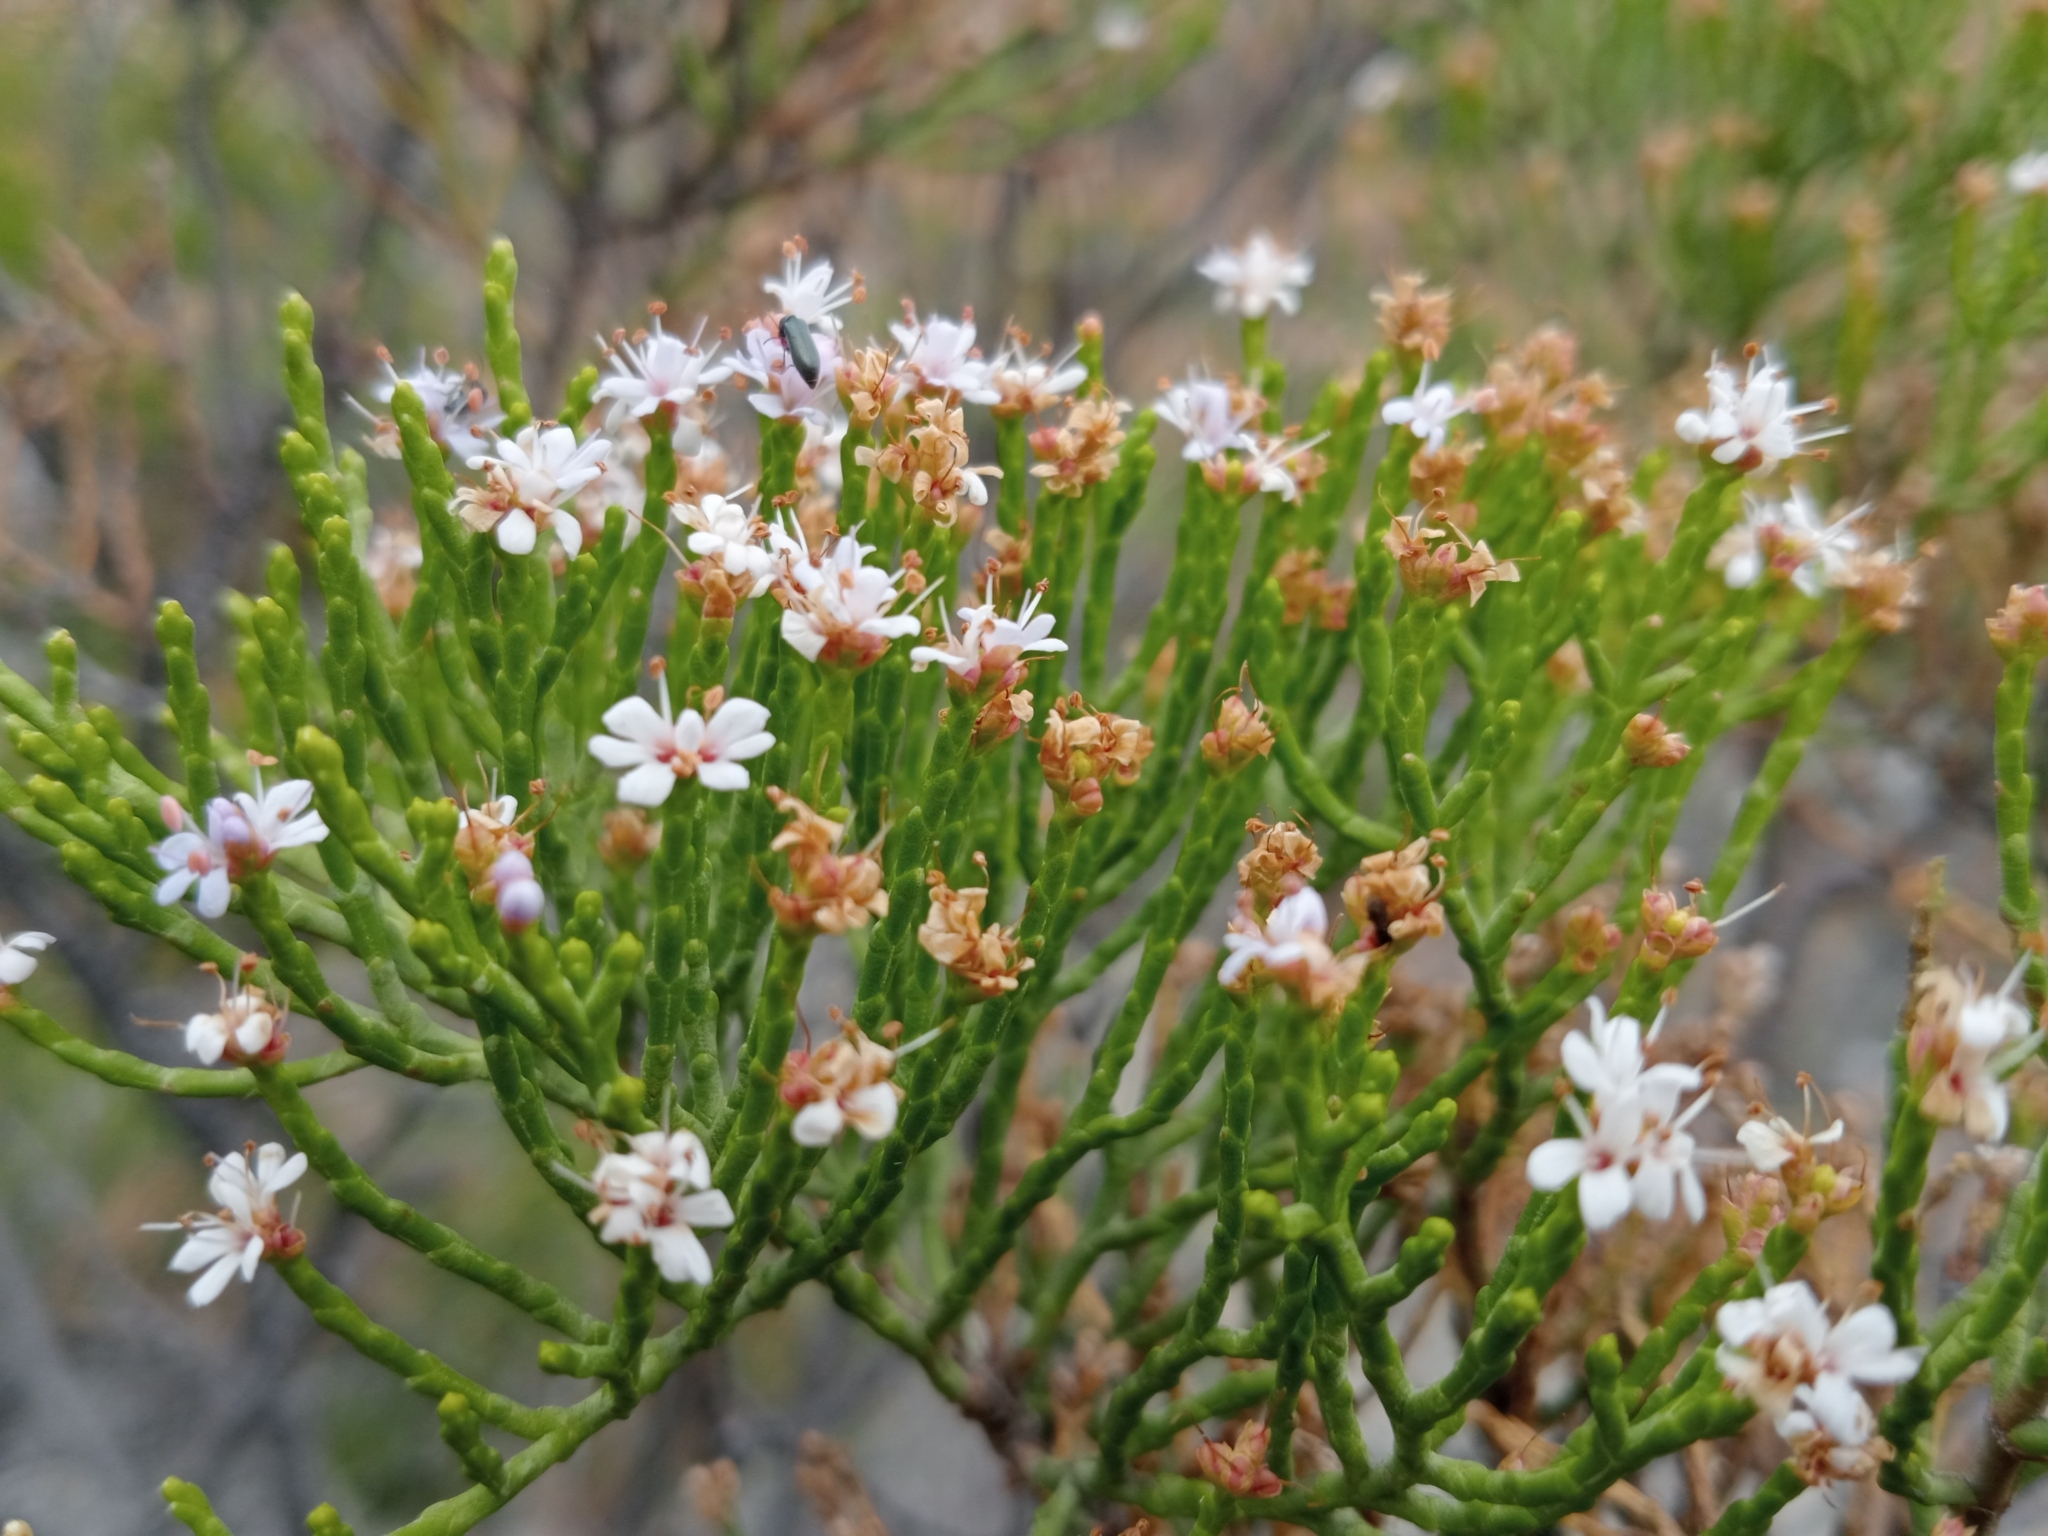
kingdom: Plantae
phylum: Tracheophyta
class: Magnoliopsida
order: Lamiales
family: Plantaginaceae
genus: Veronica
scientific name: Veronica cupressoides
